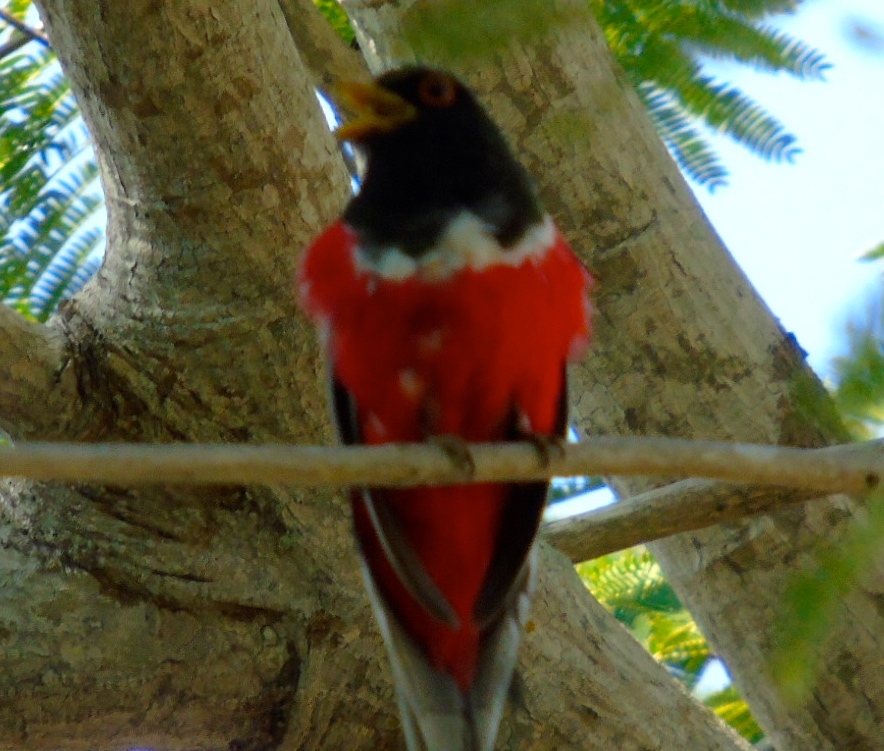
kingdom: Animalia
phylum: Chordata
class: Aves
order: Trogoniformes
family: Trogonidae
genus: Trogon
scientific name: Trogon elegans
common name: Elegant trogon
